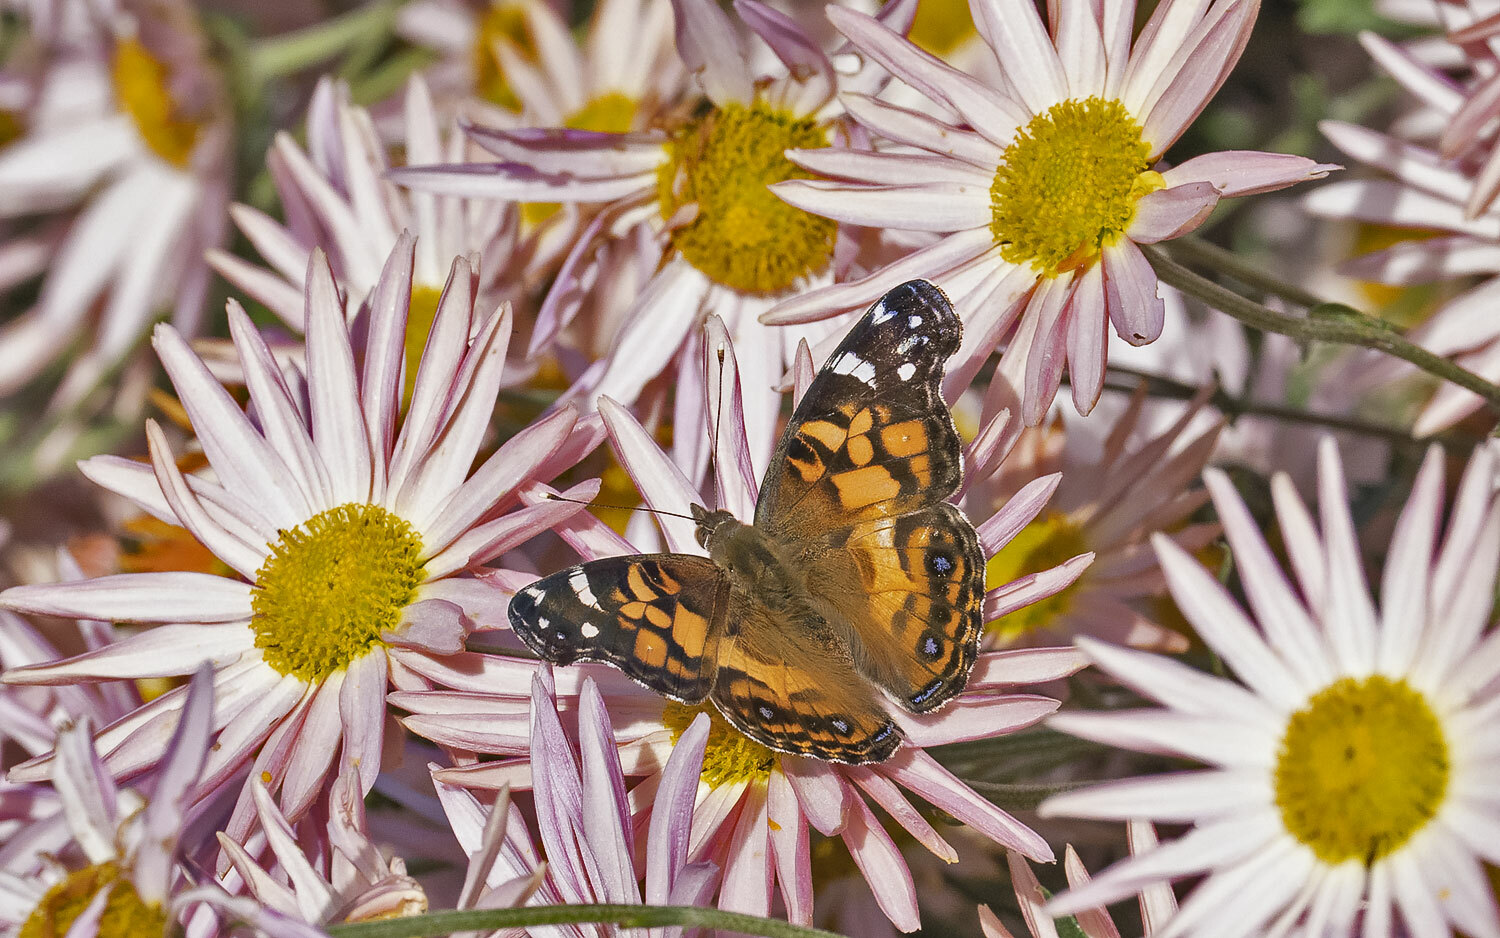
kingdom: Animalia
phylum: Arthropoda
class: Insecta
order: Lepidoptera
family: Nymphalidae
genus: Vanessa
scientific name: Vanessa virginiensis
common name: American lady
